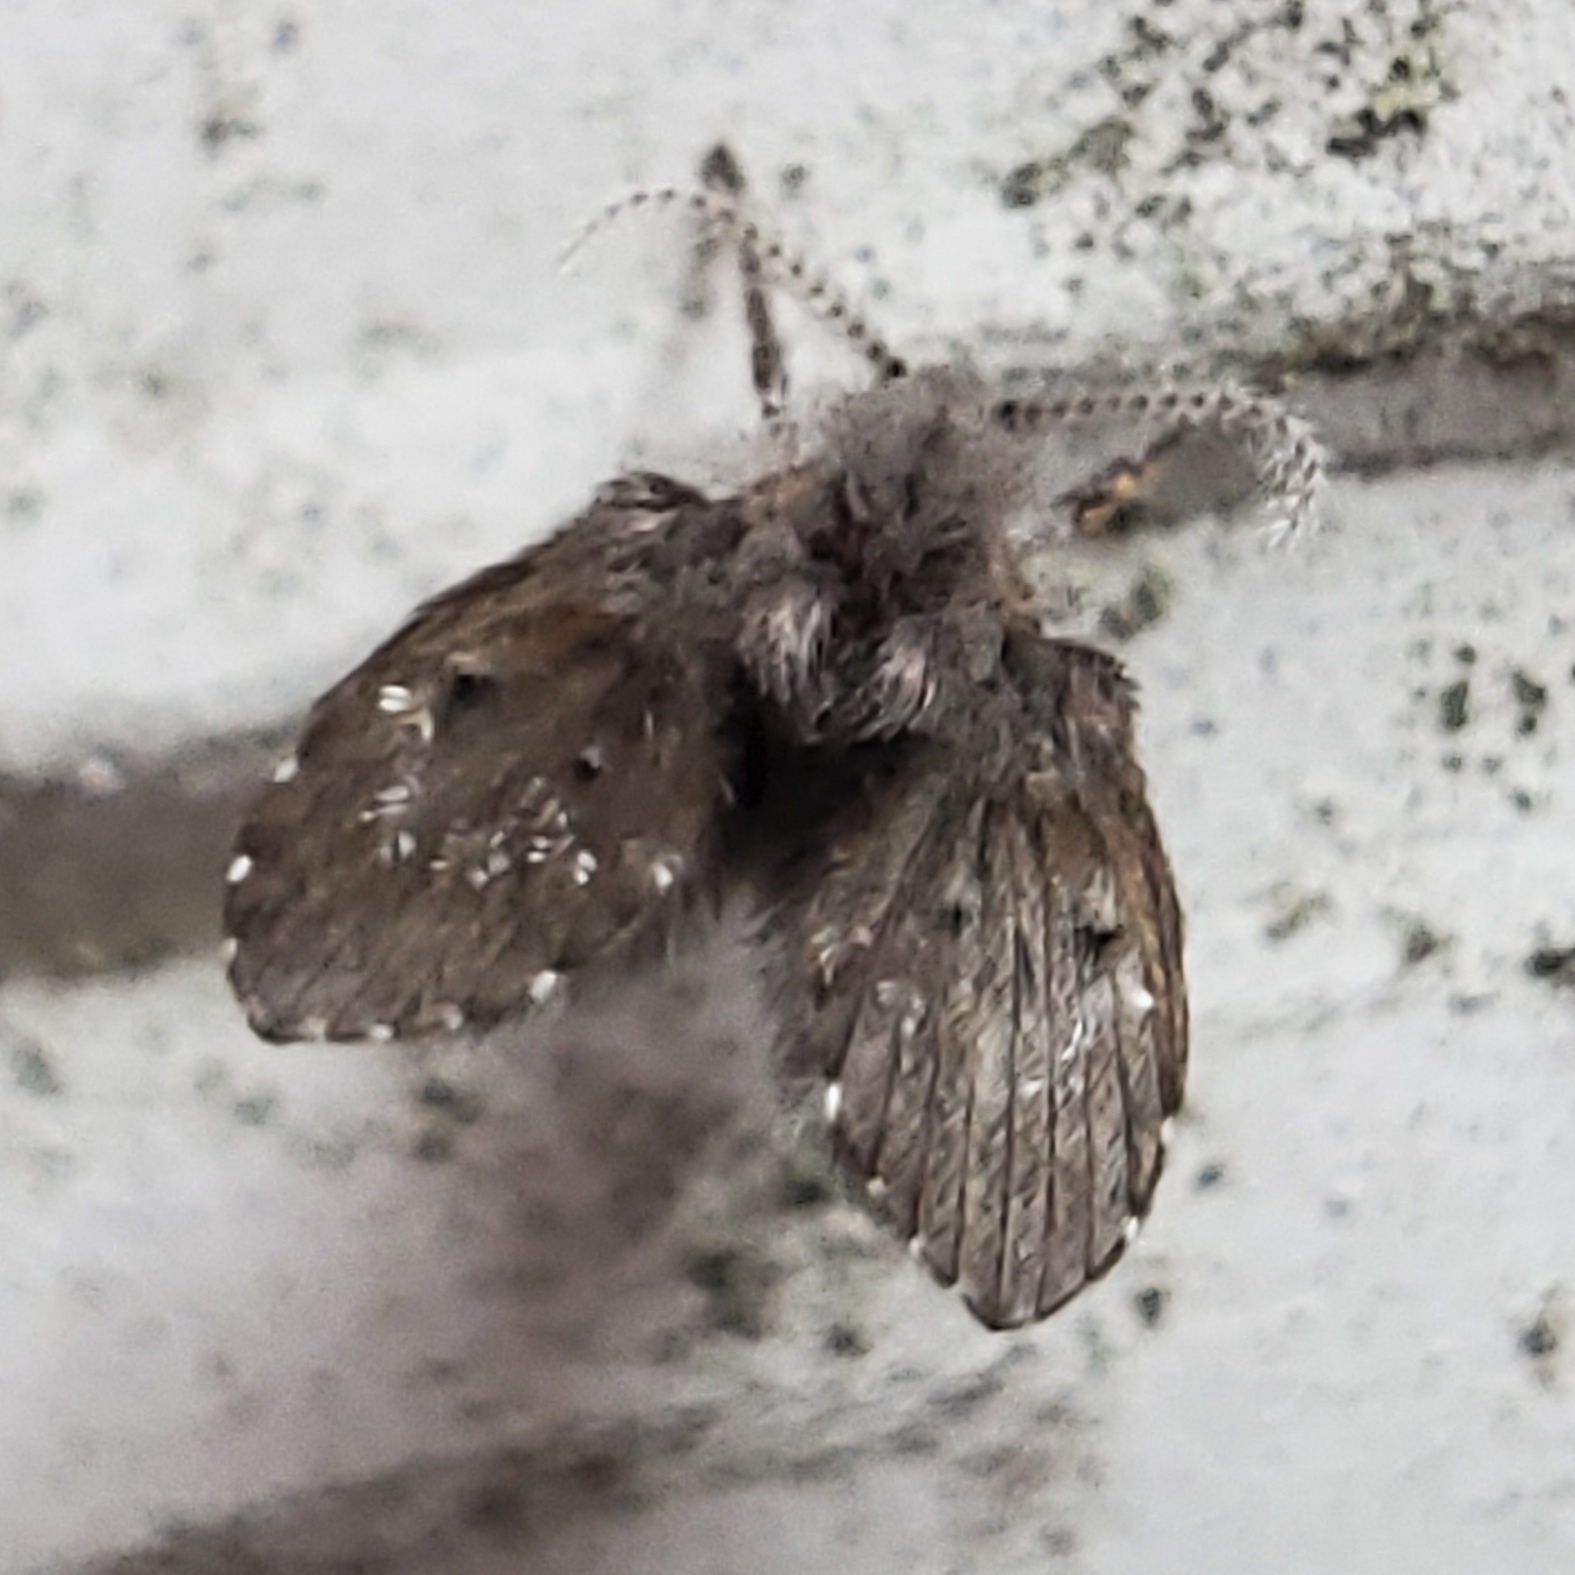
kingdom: Animalia
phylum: Arthropoda
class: Insecta
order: Diptera
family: Psychodidae
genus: Clogmia
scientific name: Clogmia albipunctatus
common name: White-spotted moth fly
